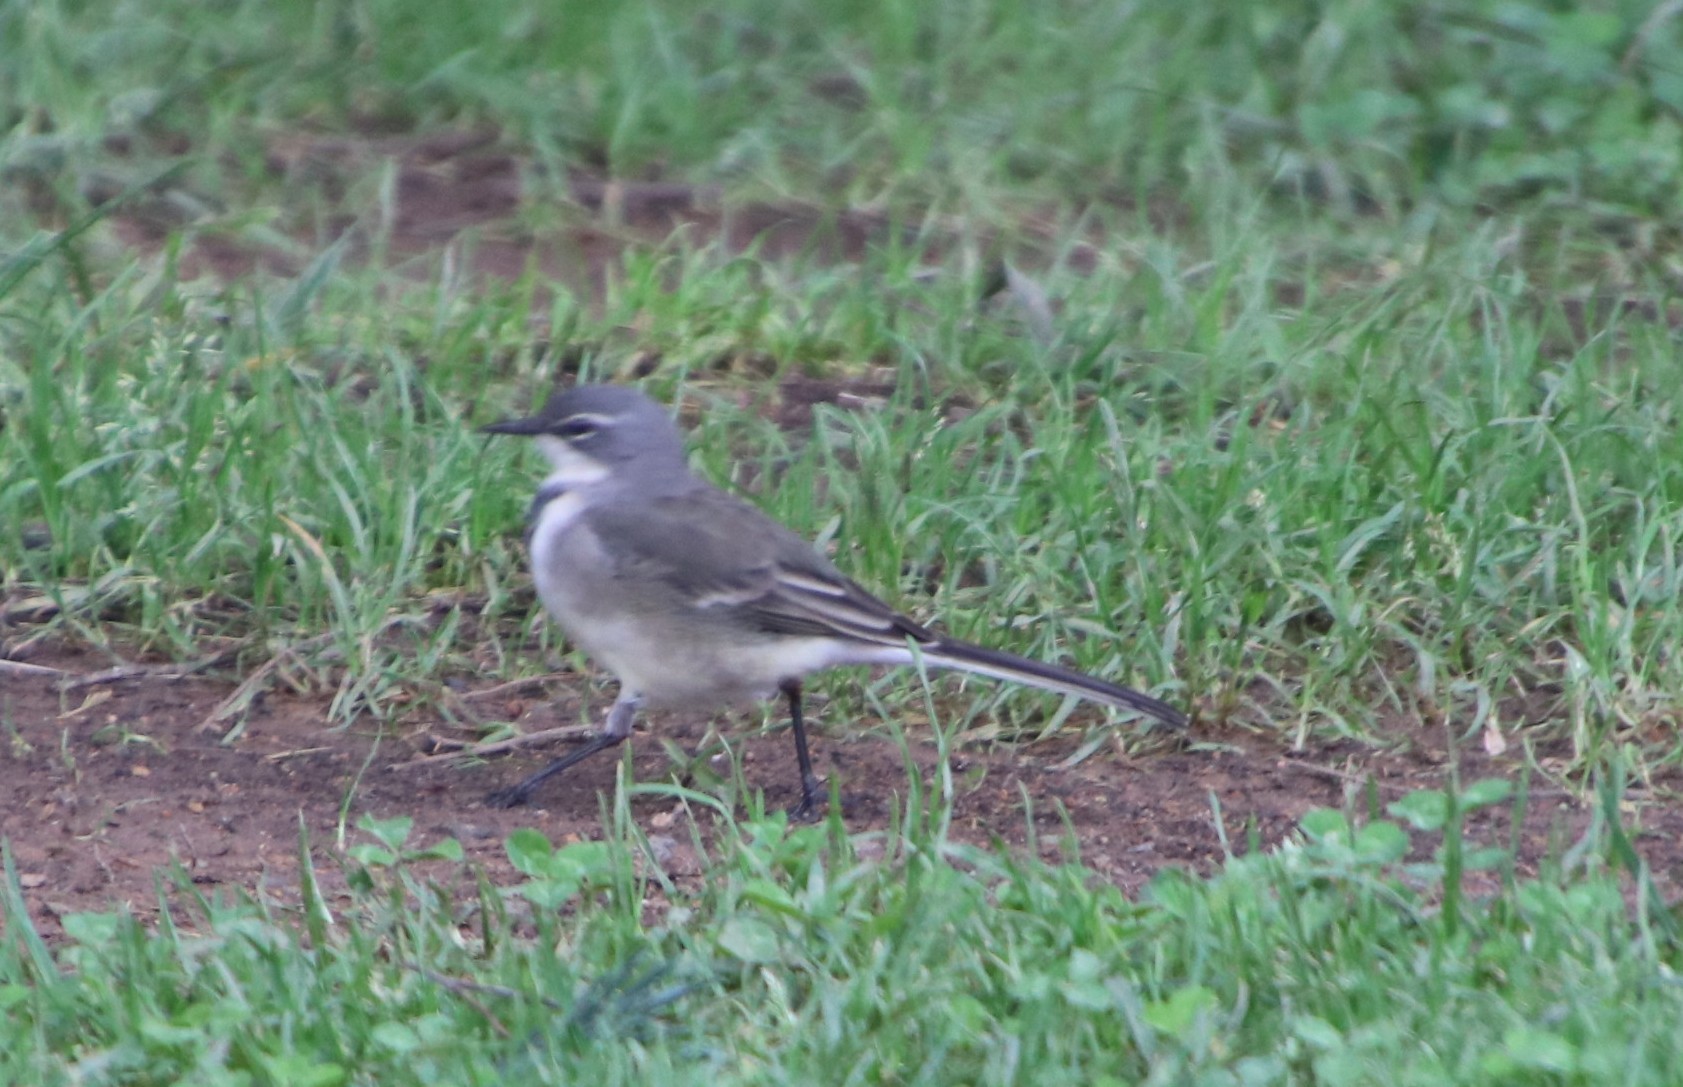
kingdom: Animalia
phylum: Chordata
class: Aves
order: Passeriformes
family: Motacillidae
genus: Motacilla
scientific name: Motacilla capensis
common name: Cape wagtail
